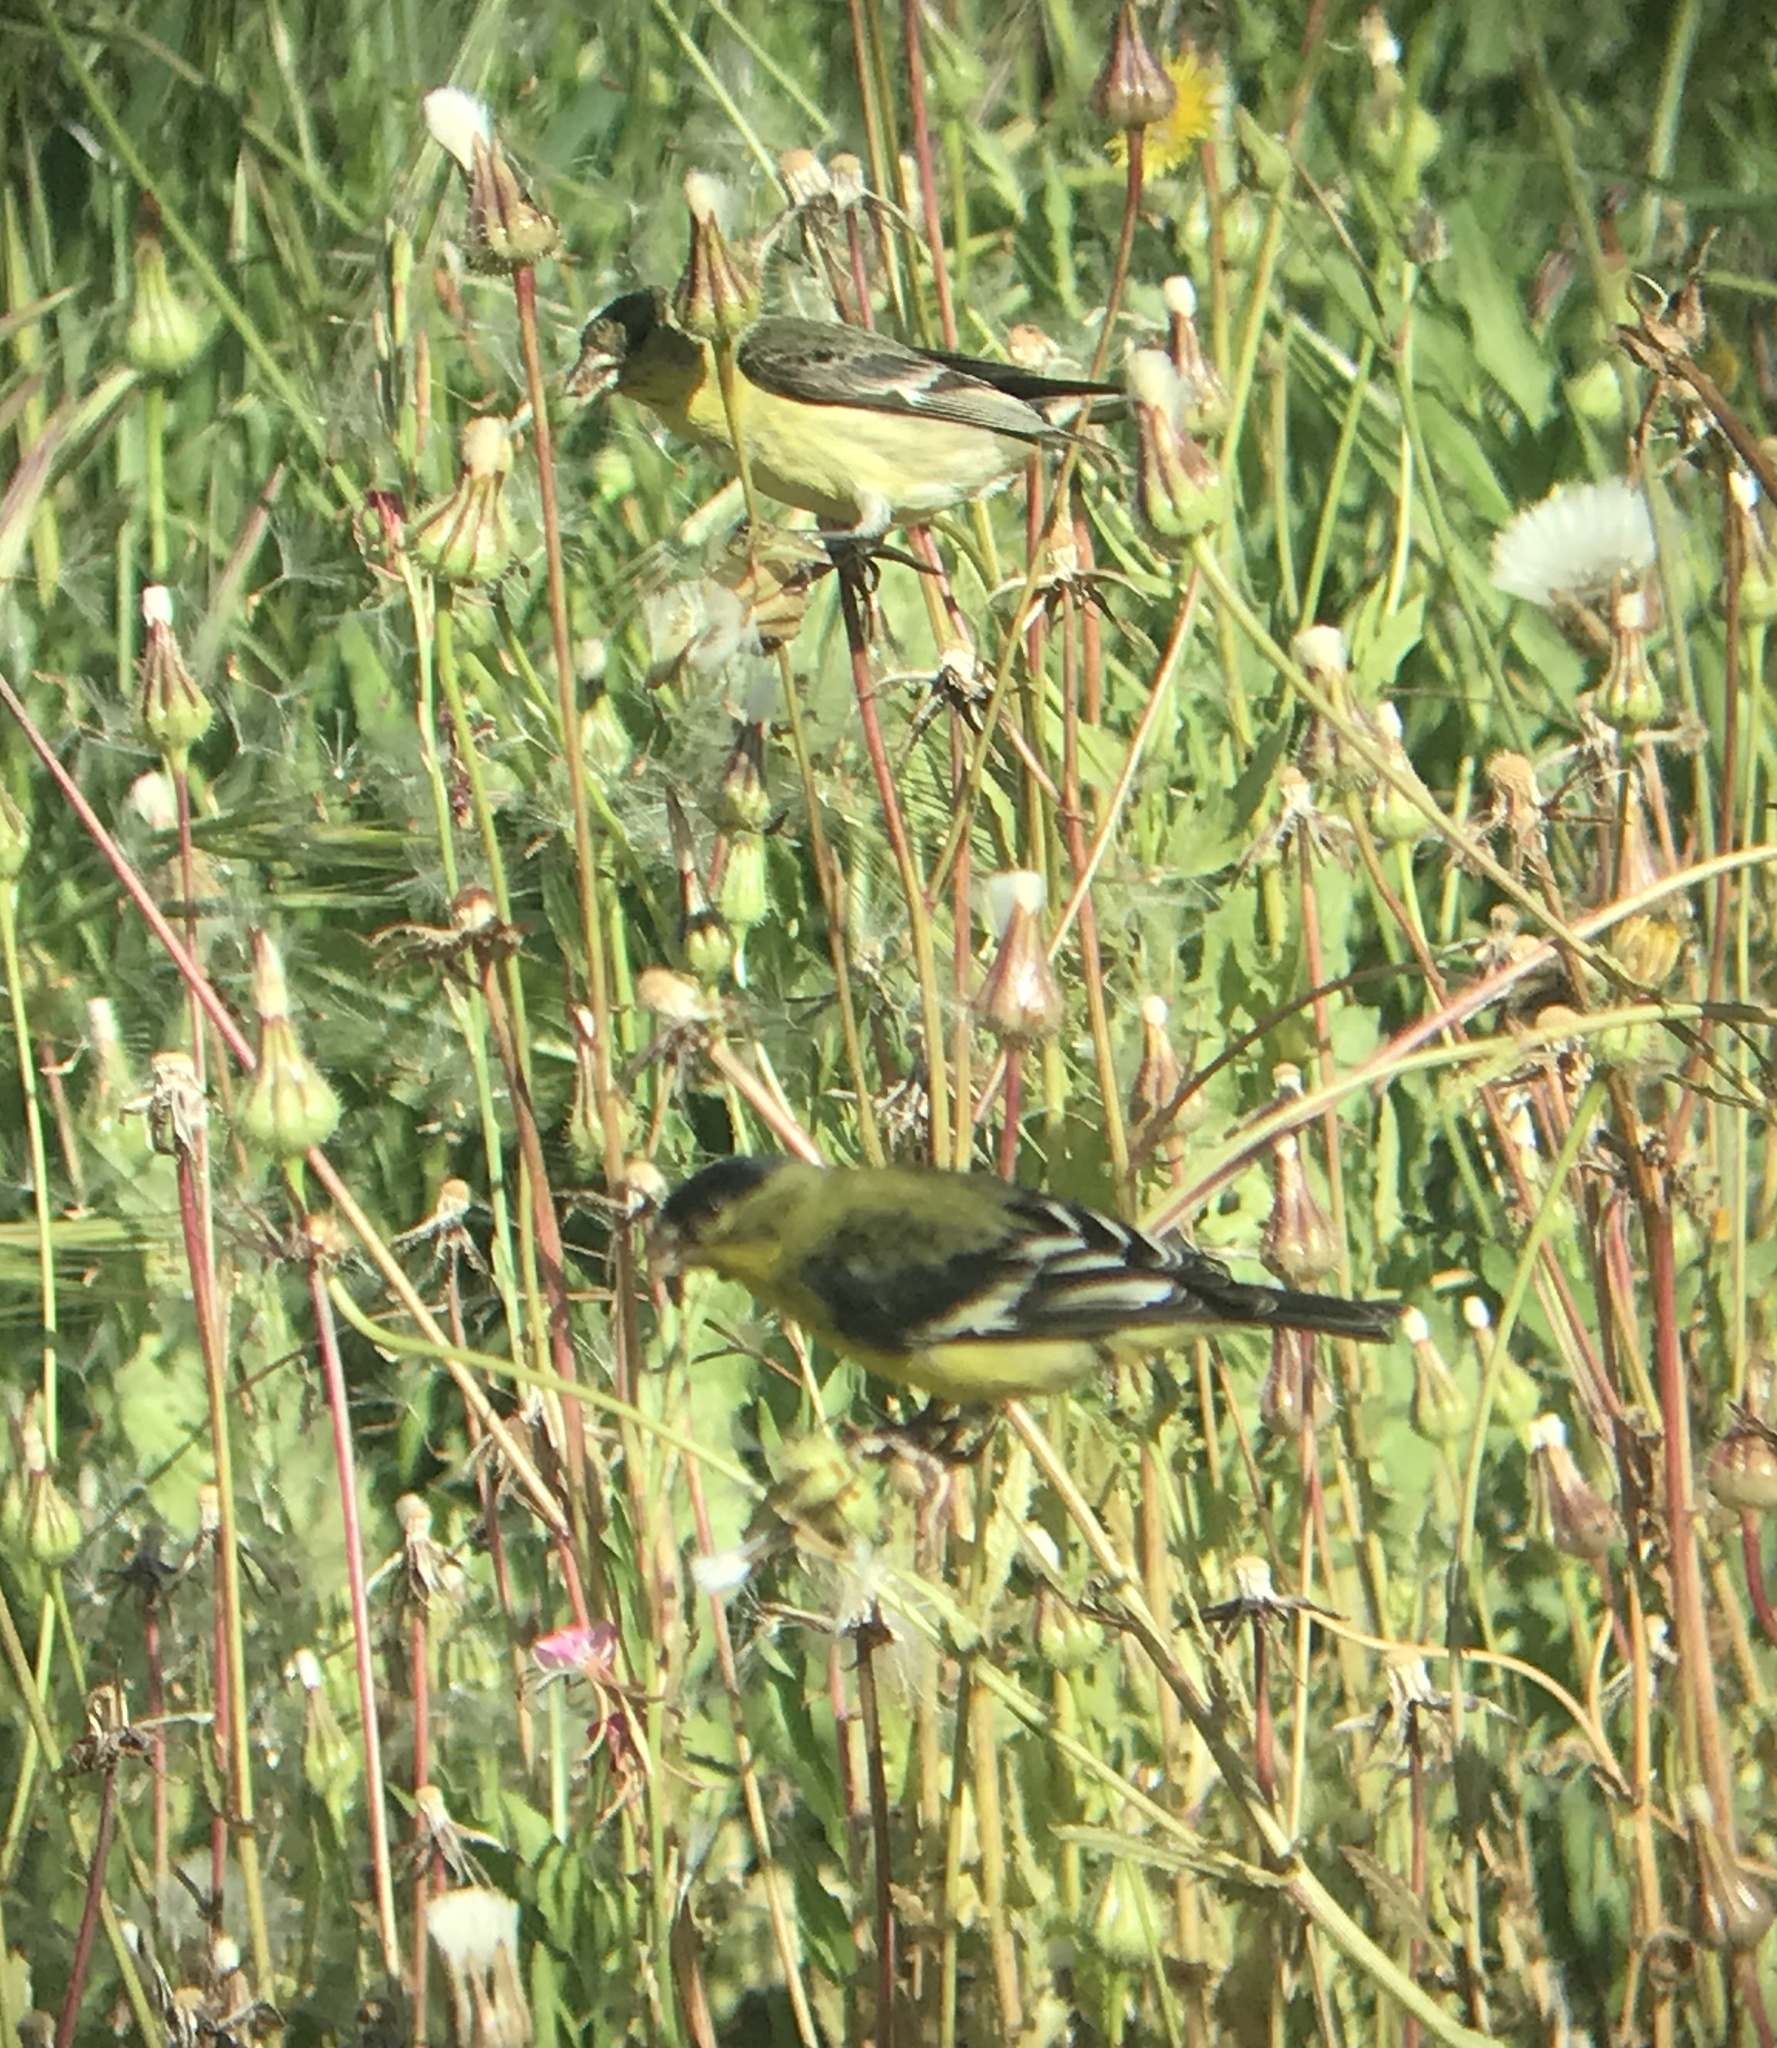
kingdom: Animalia
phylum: Chordata
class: Aves
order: Passeriformes
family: Fringillidae
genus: Spinus
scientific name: Spinus psaltria
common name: Lesser goldfinch
